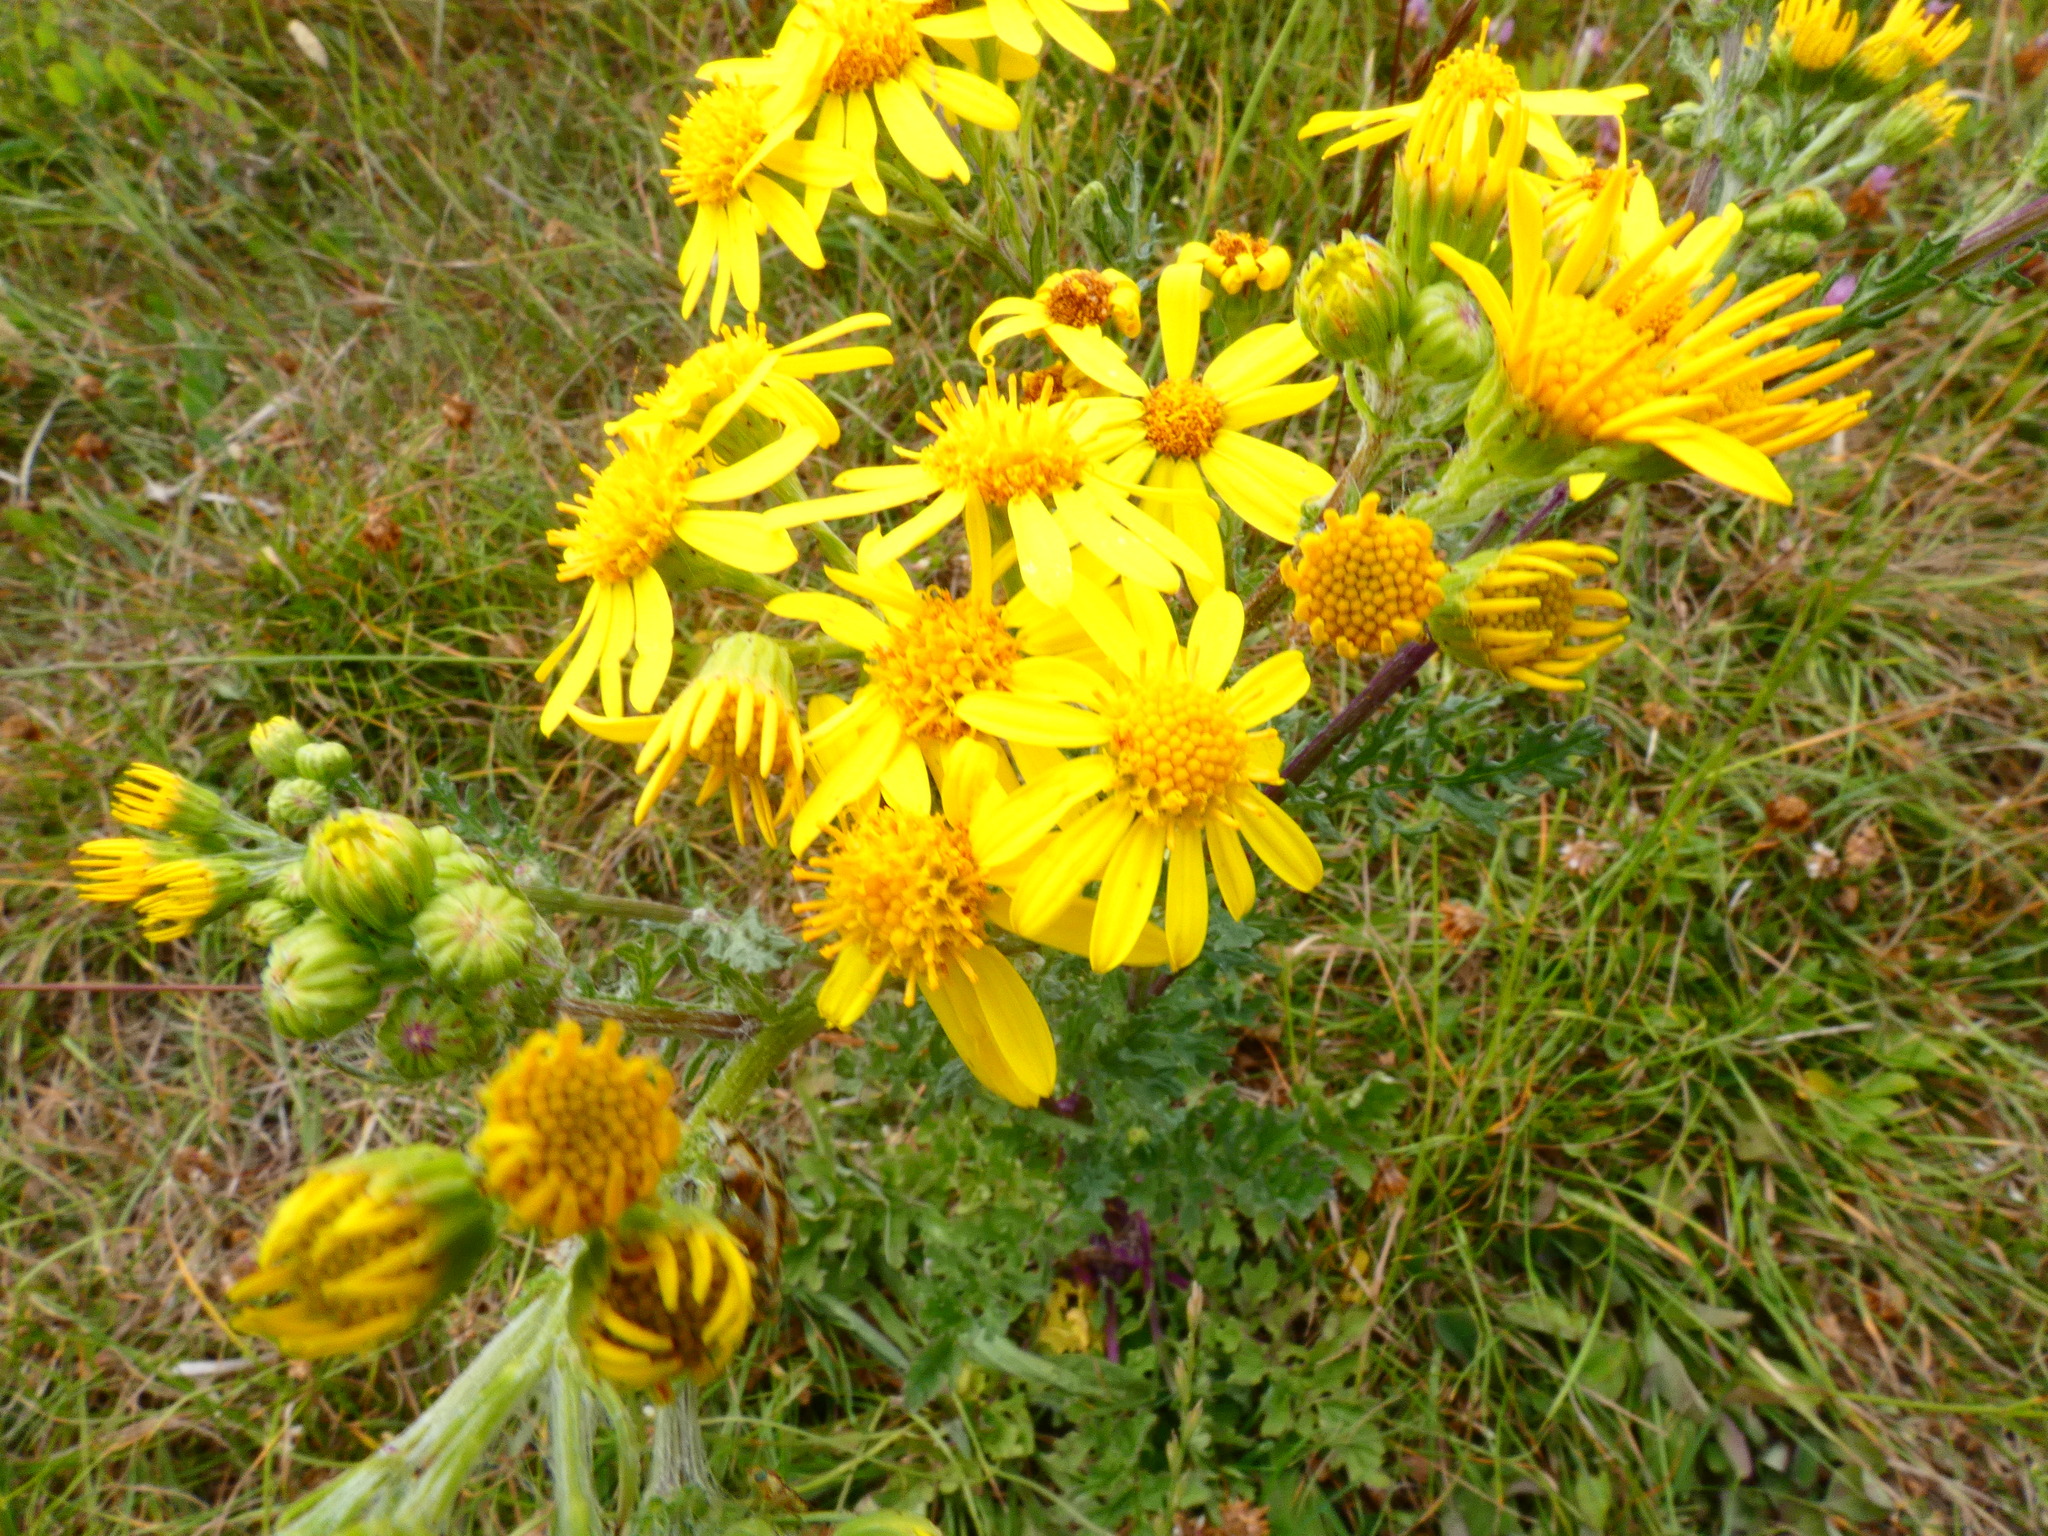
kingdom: Plantae
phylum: Tracheophyta
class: Magnoliopsida
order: Asterales
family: Asteraceae
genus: Jacobaea
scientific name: Jacobaea vulgaris
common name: Stinking willie
